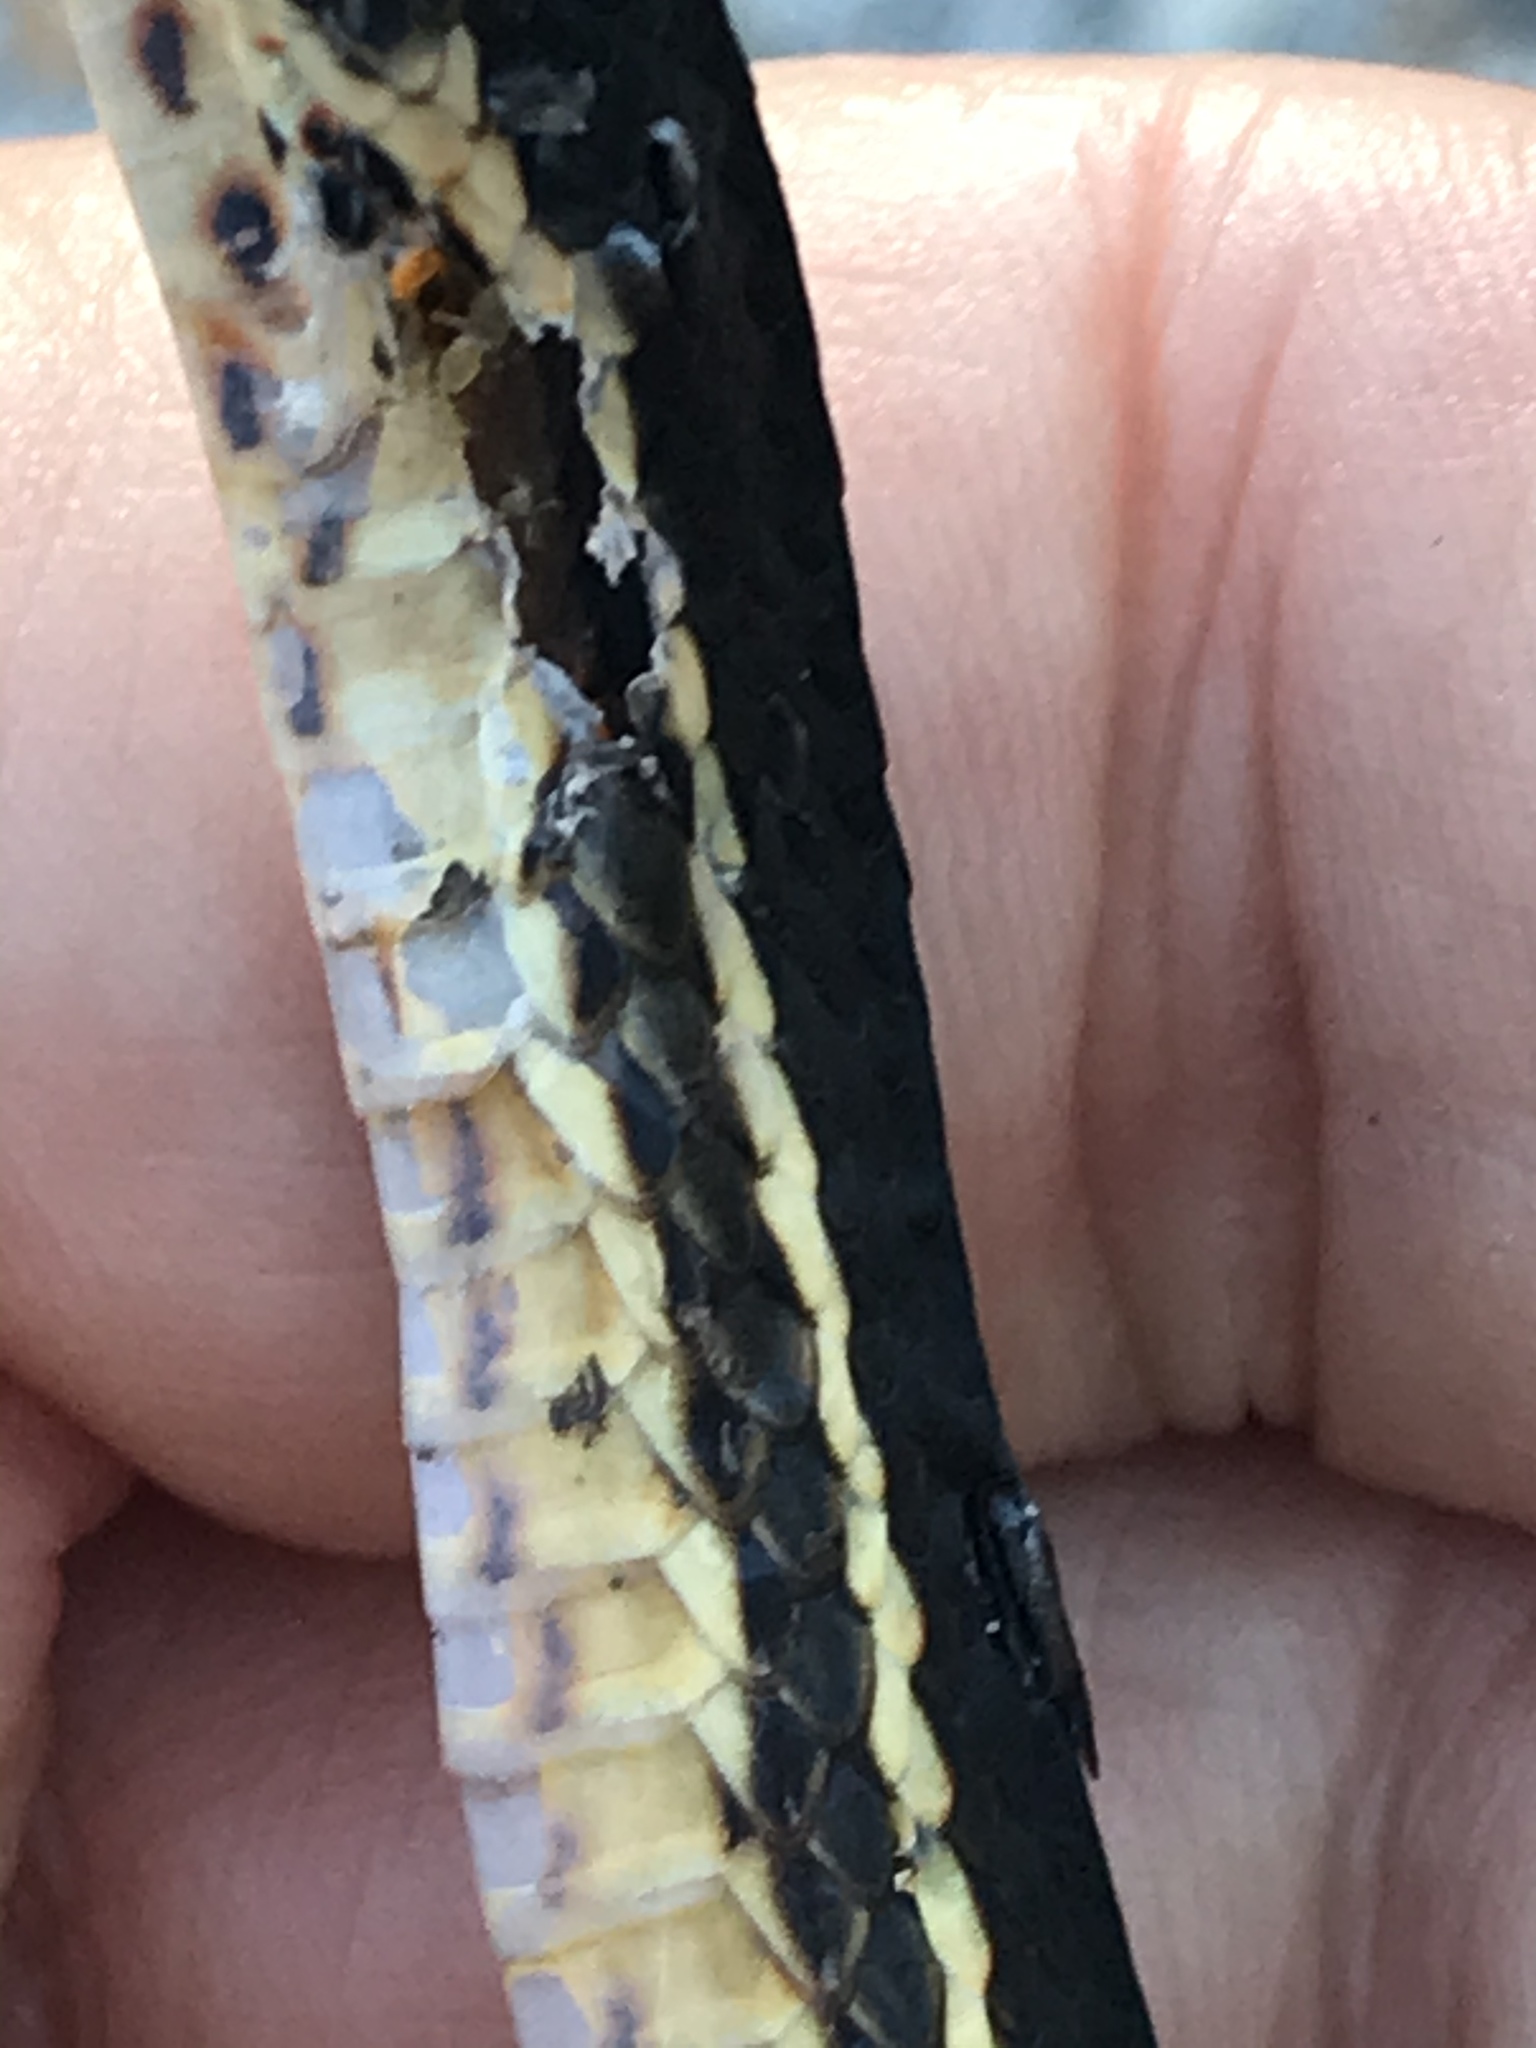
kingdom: Animalia
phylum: Chordata
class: Squamata
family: Colubridae
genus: Masticophis
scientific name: Masticophis lateralis
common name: Striped racer
